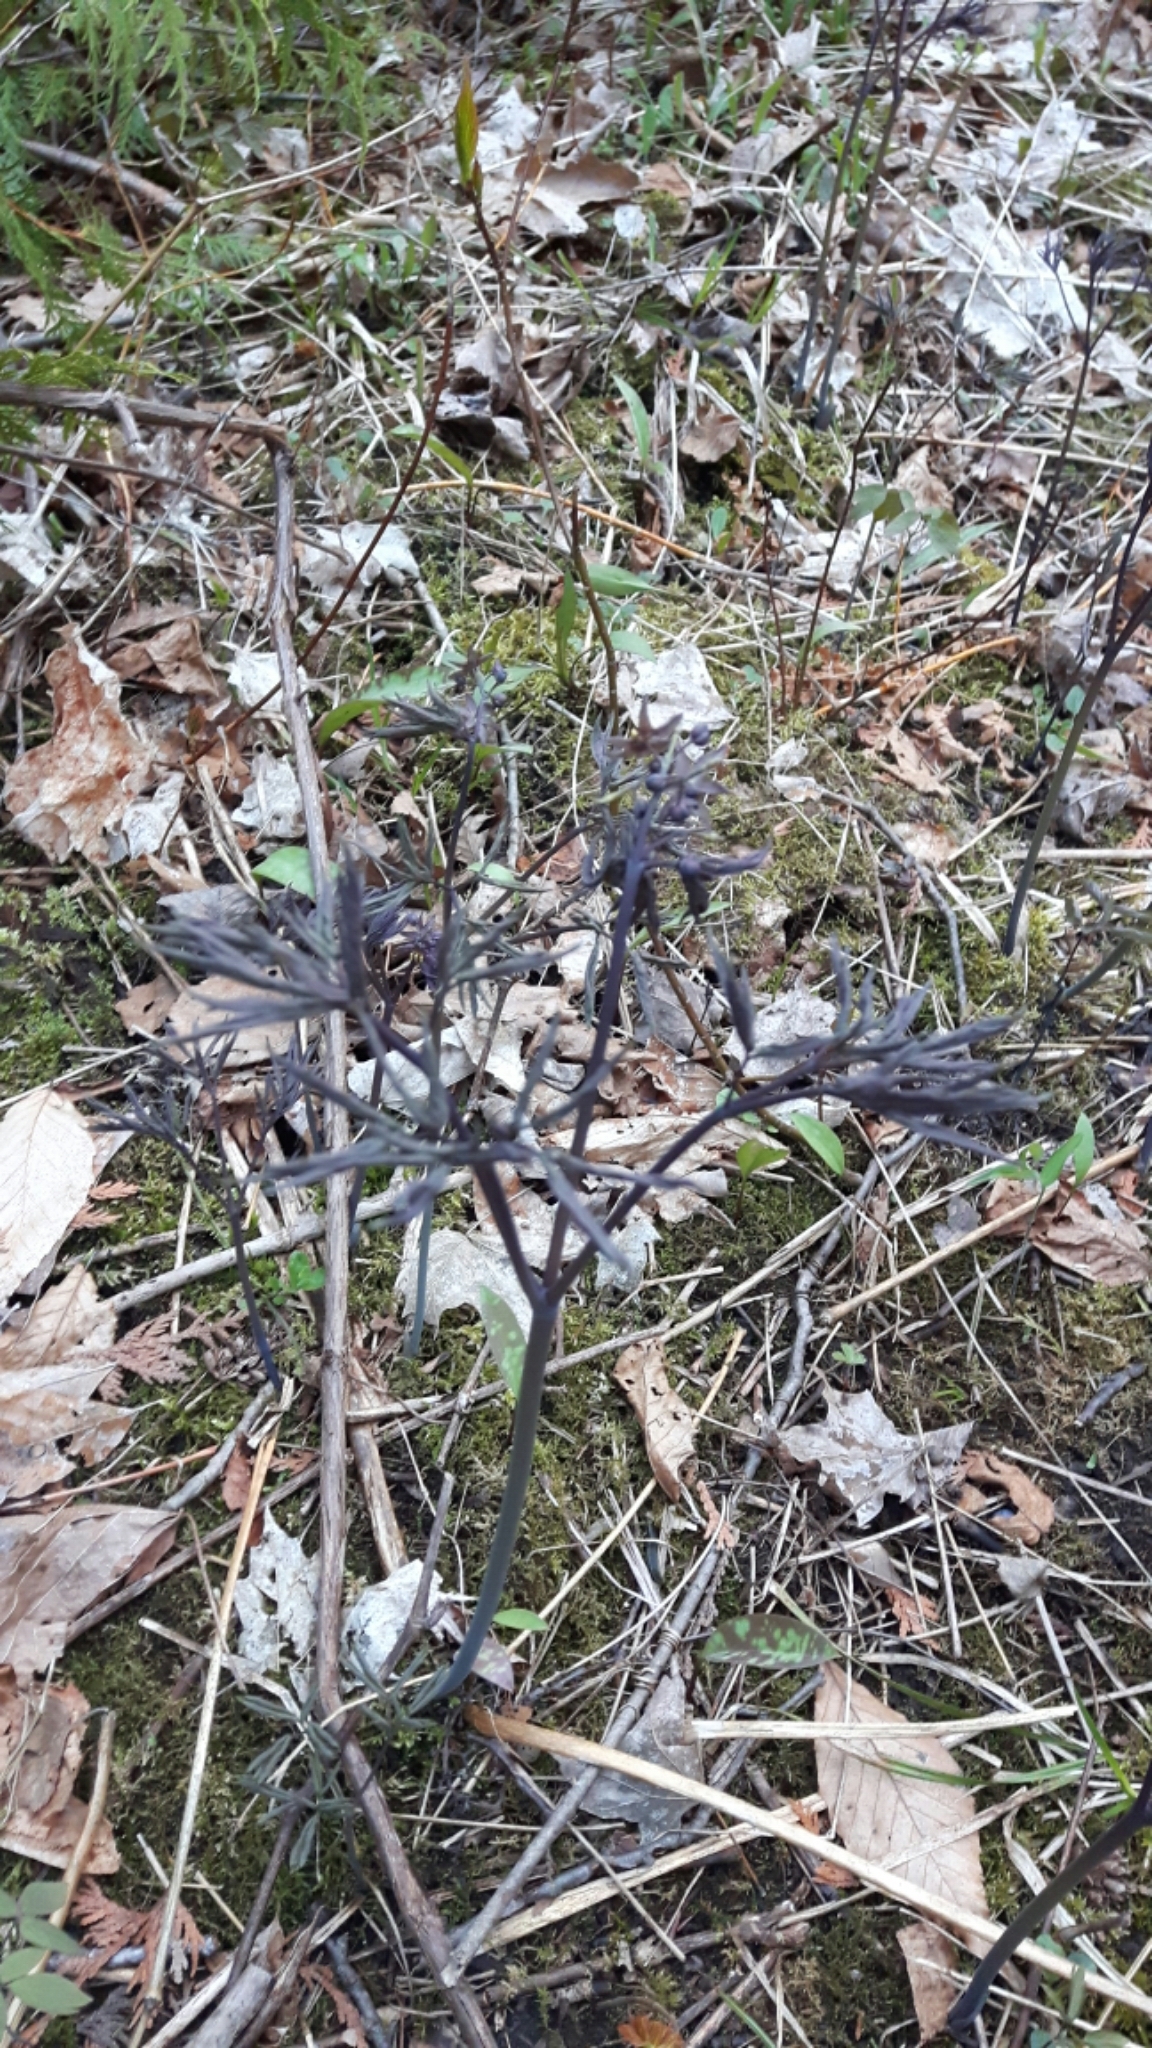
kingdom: Plantae
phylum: Tracheophyta
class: Magnoliopsida
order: Ranunculales
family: Berberidaceae
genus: Caulophyllum
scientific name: Caulophyllum giganteum
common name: Blue cohosh
